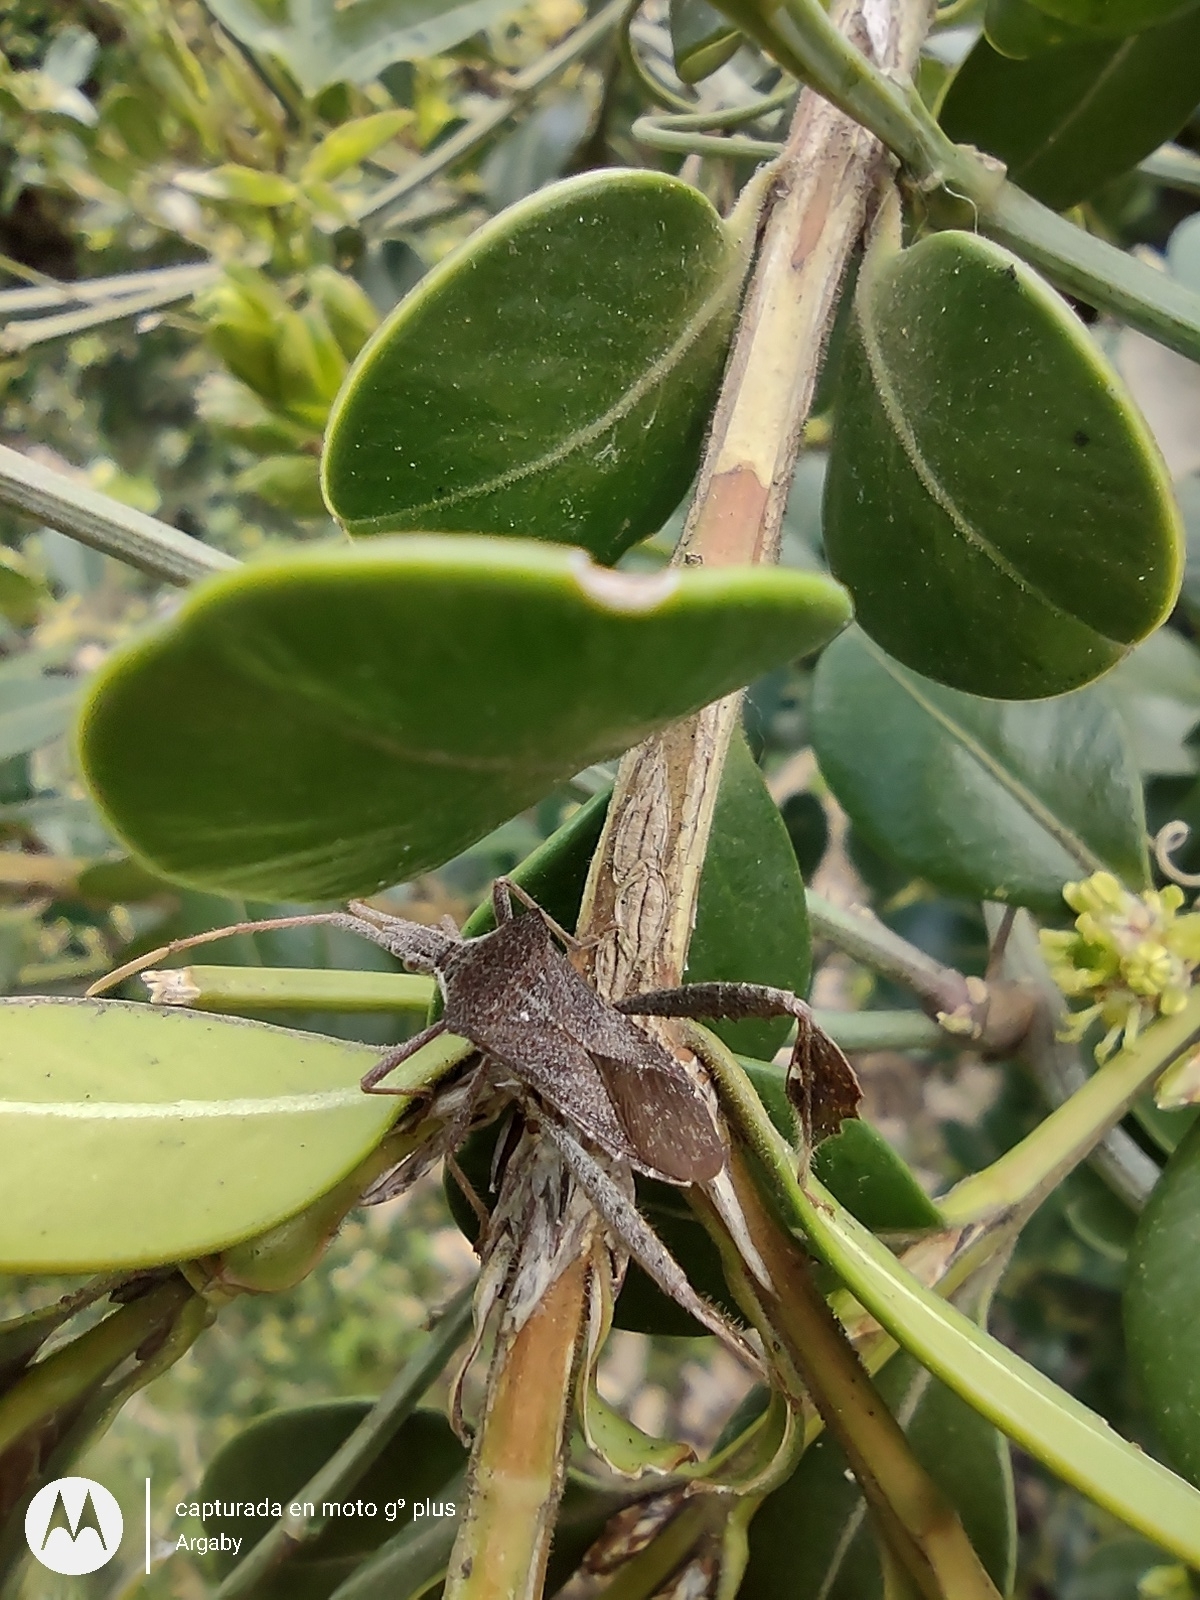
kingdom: Animalia
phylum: Arthropoda
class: Insecta
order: Hemiptera
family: Coreidae
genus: Leptoglossus
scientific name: Leptoglossus concaviusculus
